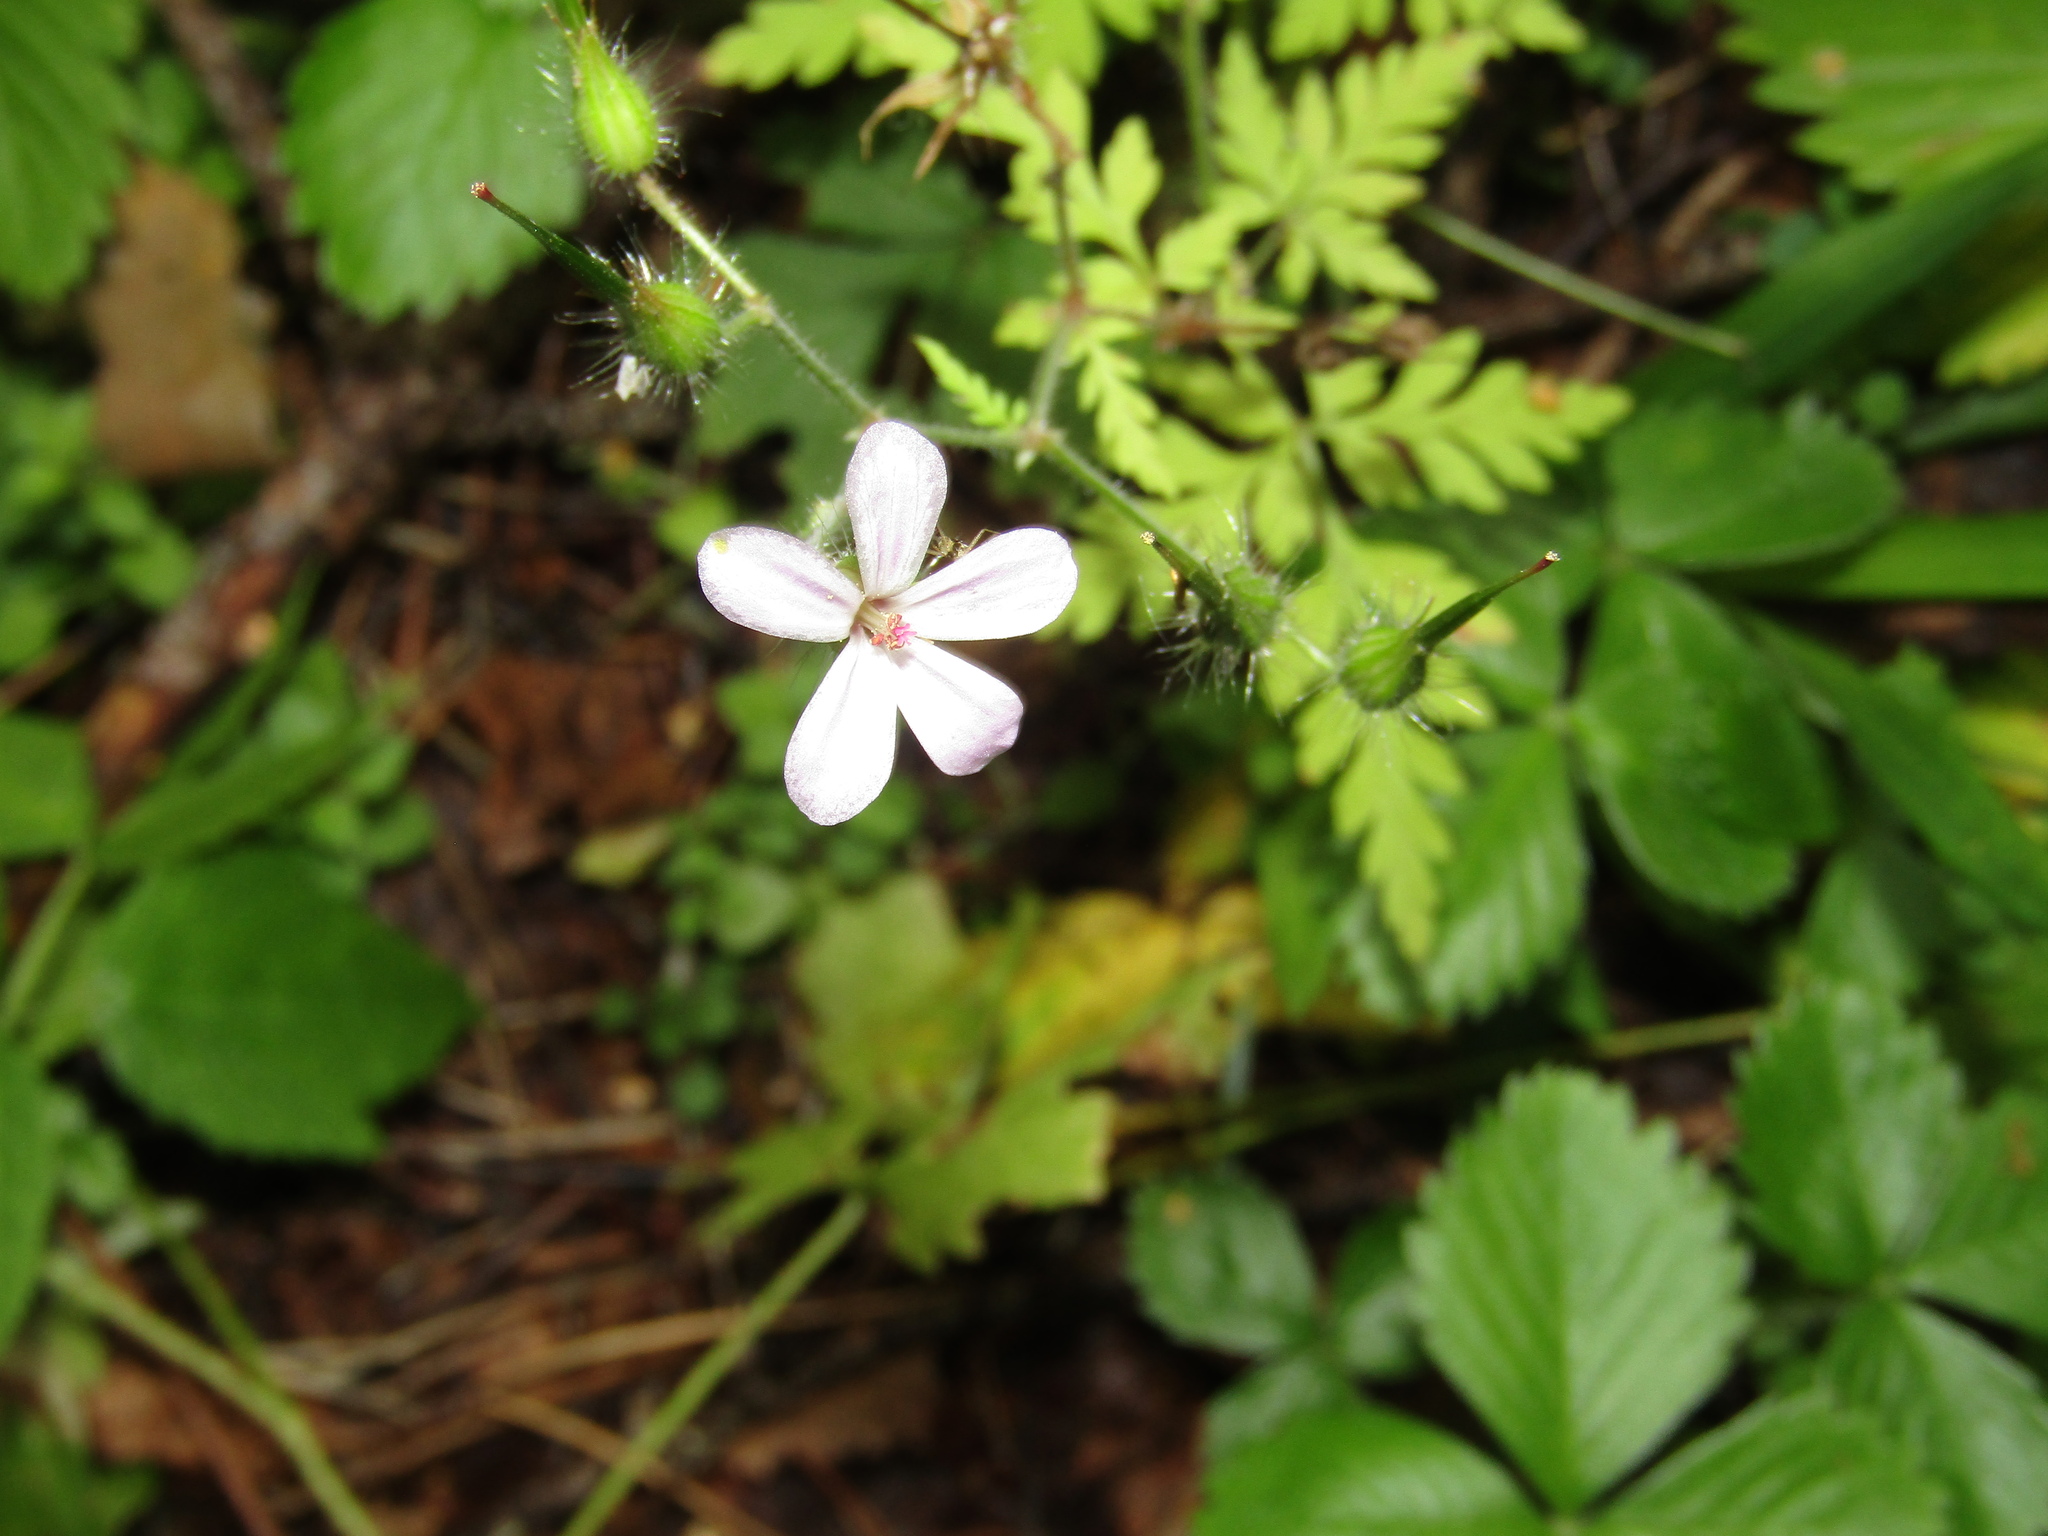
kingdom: Plantae
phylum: Tracheophyta
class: Magnoliopsida
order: Geraniales
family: Geraniaceae
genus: Geranium
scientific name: Geranium robertianum
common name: Herb-robert
